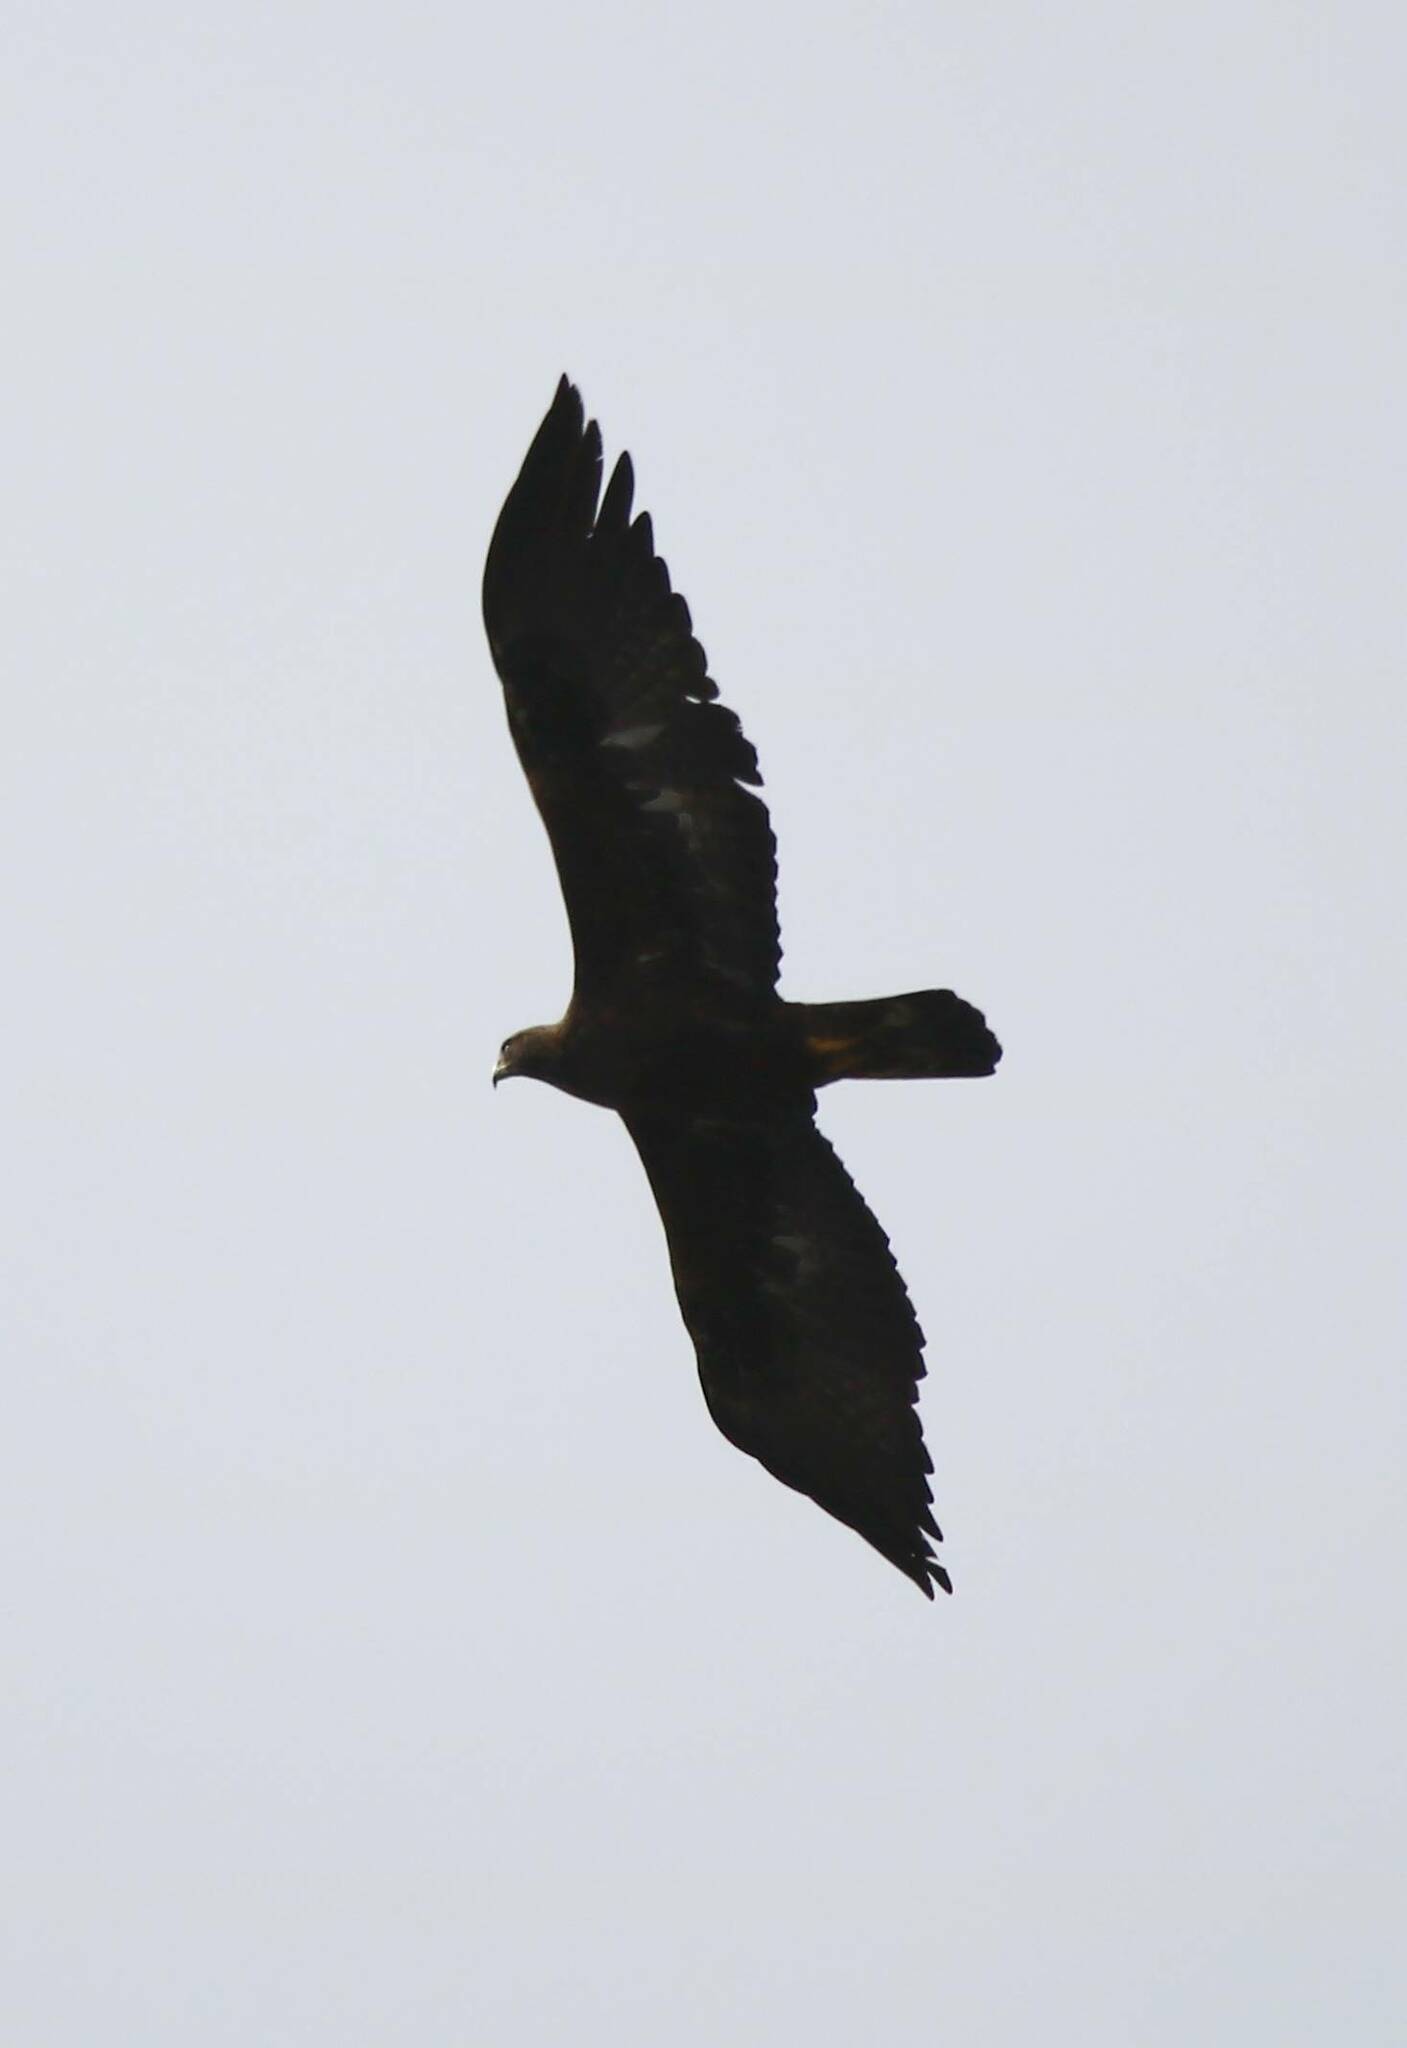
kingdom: Animalia
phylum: Chordata
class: Aves
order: Accipitriformes
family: Accipitridae
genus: Aquila
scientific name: Aquila chrysaetos
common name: Golden eagle
